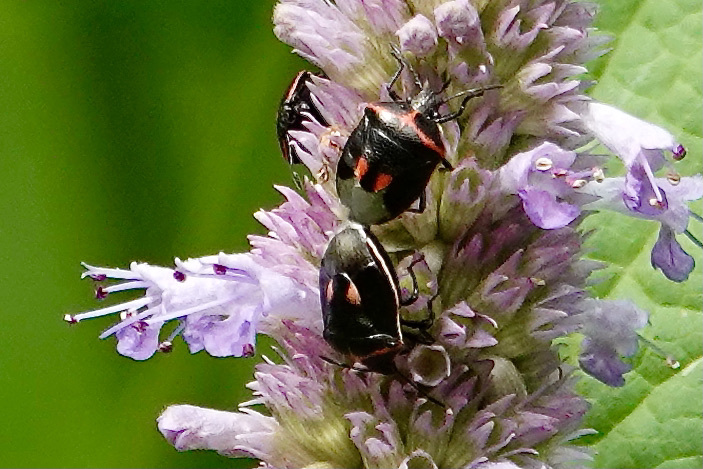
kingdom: Animalia
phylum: Arthropoda
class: Insecta
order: Hemiptera
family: Pentatomidae
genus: Cosmopepla
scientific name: Cosmopepla lintneriana
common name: Twice-stabbed stink bug
